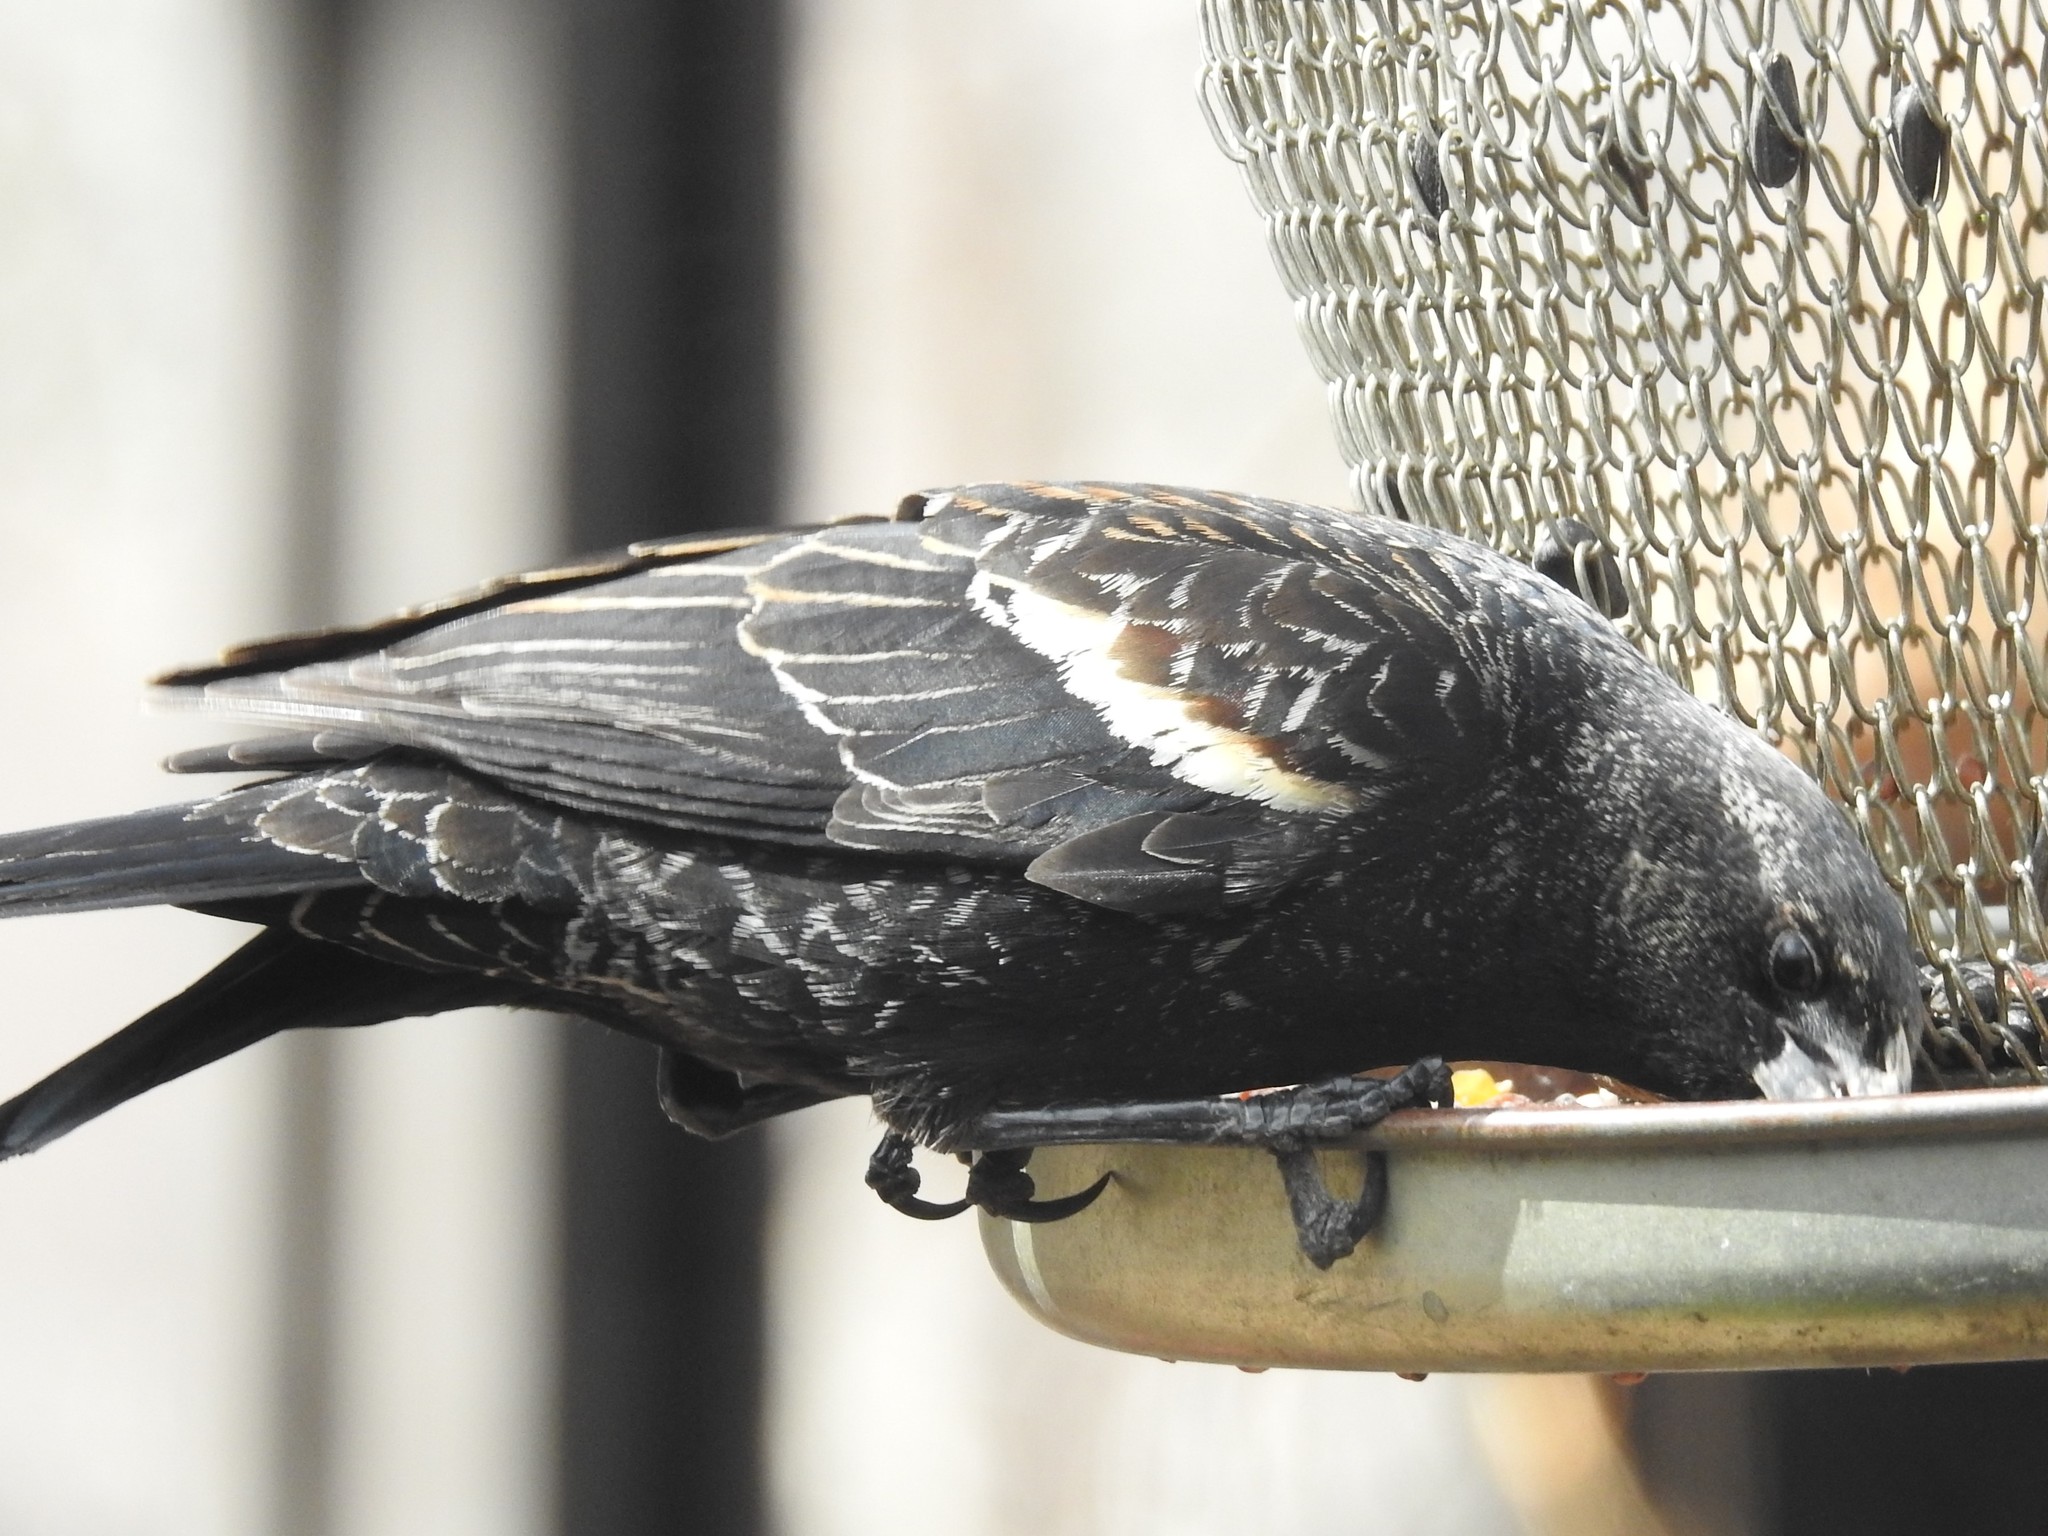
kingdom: Animalia
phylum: Chordata
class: Aves
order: Passeriformes
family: Icteridae
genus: Agelaius
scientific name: Agelaius phoeniceus
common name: Red-winged blackbird
